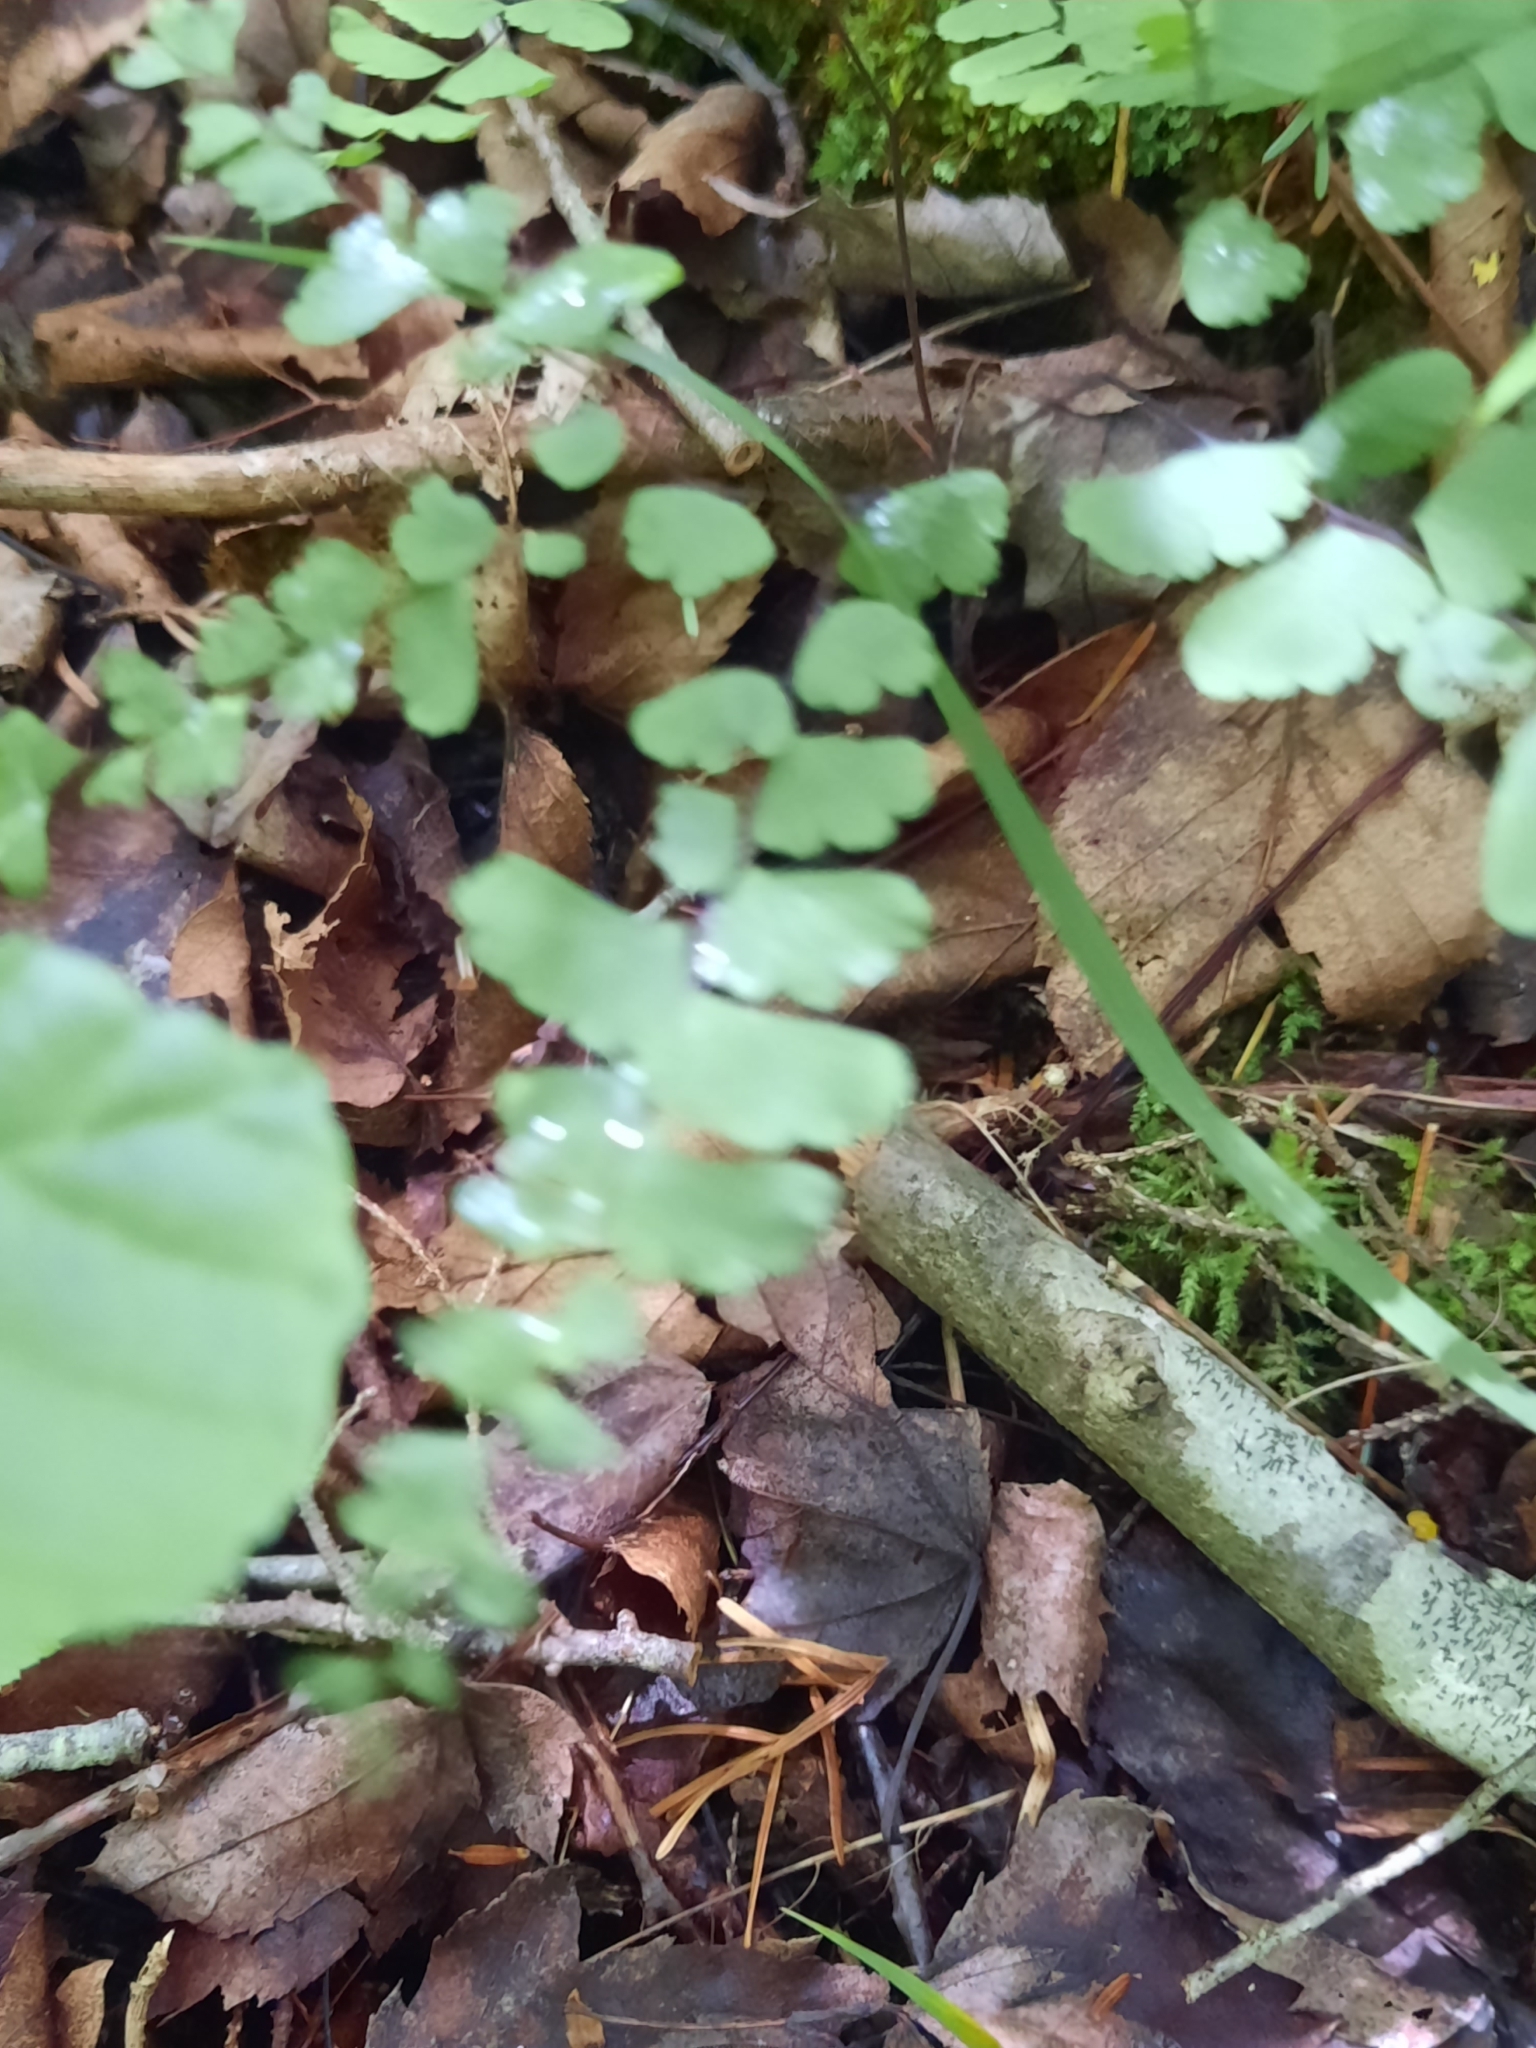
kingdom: Plantae
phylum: Tracheophyta
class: Polypodiopsida
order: Polypodiales
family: Pteridaceae
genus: Adiantum
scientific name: Adiantum pedatum
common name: Five-finger fern
